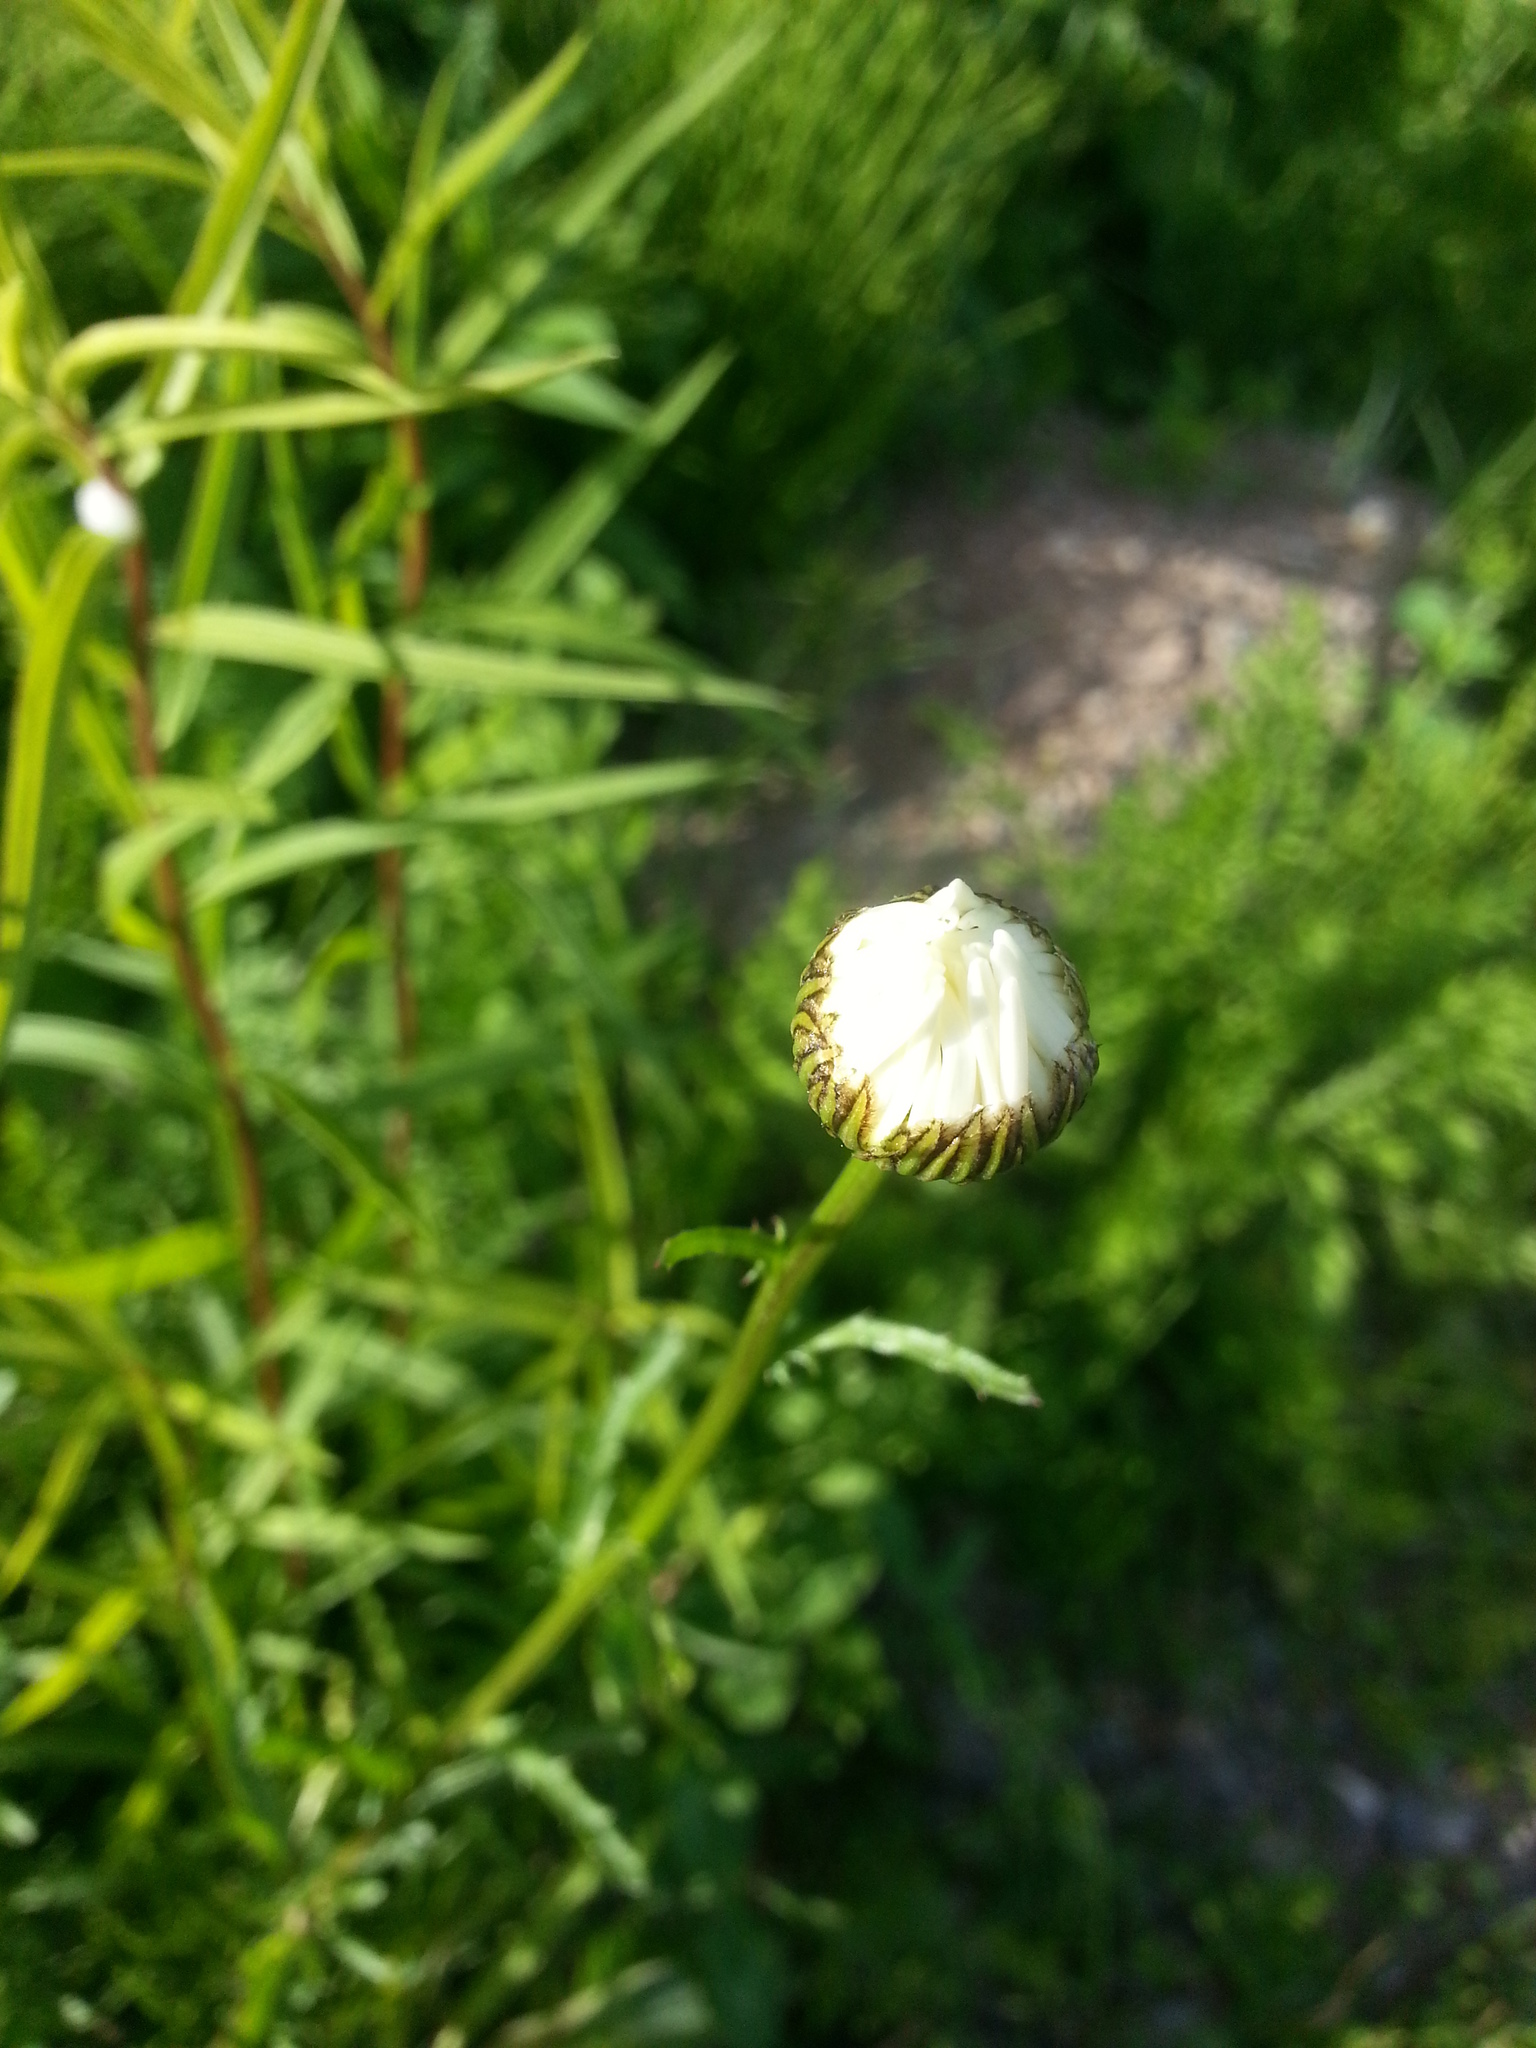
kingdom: Plantae
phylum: Tracheophyta
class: Magnoliopsida
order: Asterales
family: Asteraceae
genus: Leucanthemum
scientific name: Leucanthemum vulgare
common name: Oxeye daisy
